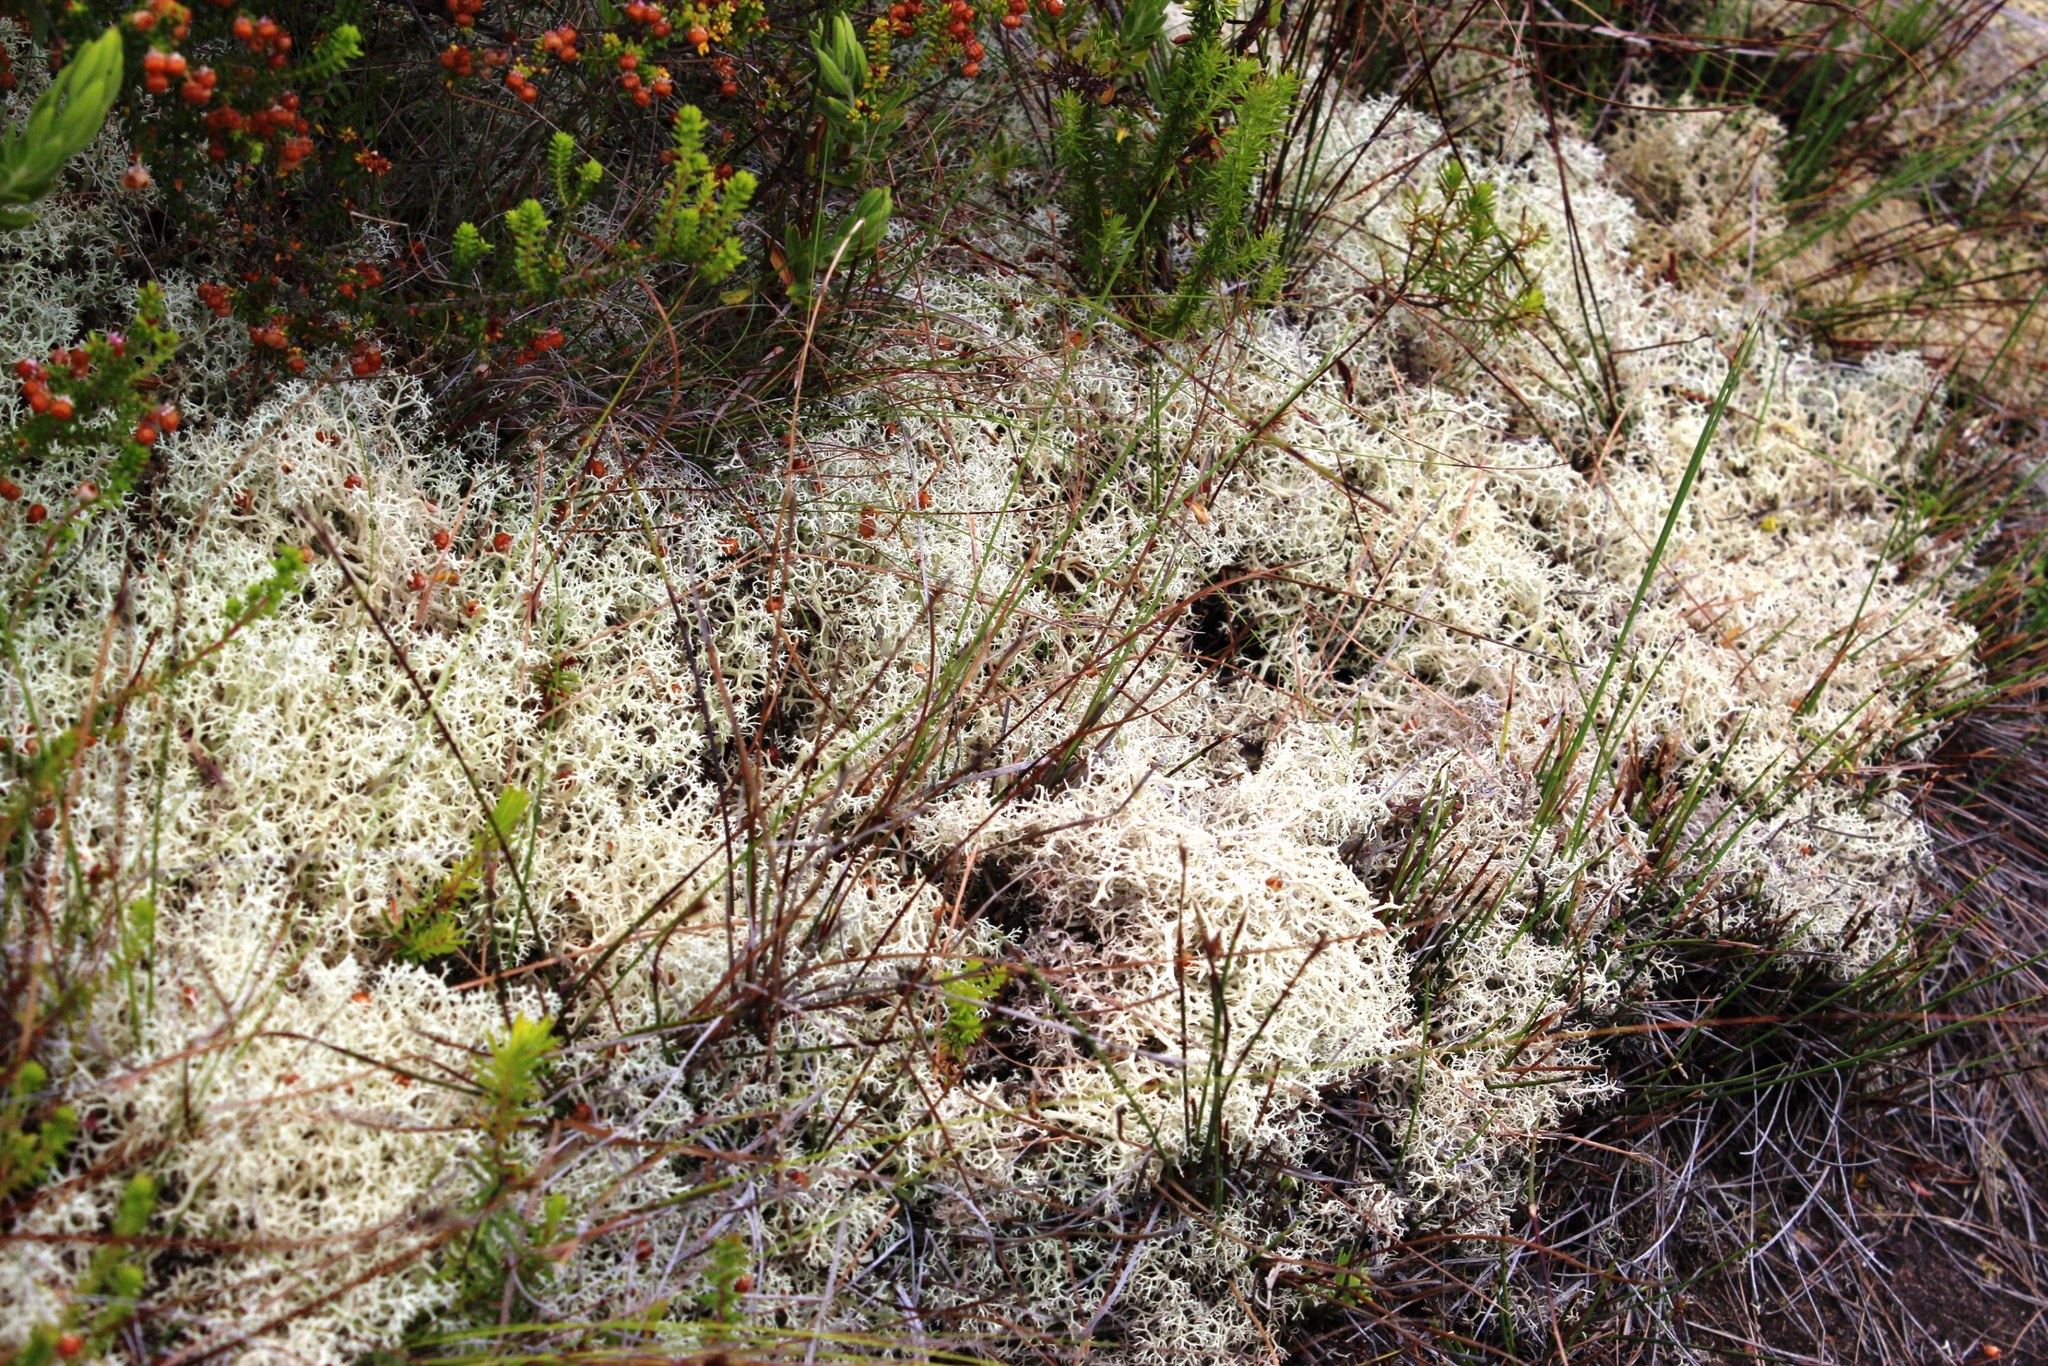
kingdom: Fungi
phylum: Ascomycota
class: Lecanoromycetes
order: Lecanorales
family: Cladoniaceae
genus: Cladonia
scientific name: Cladonia confusa
